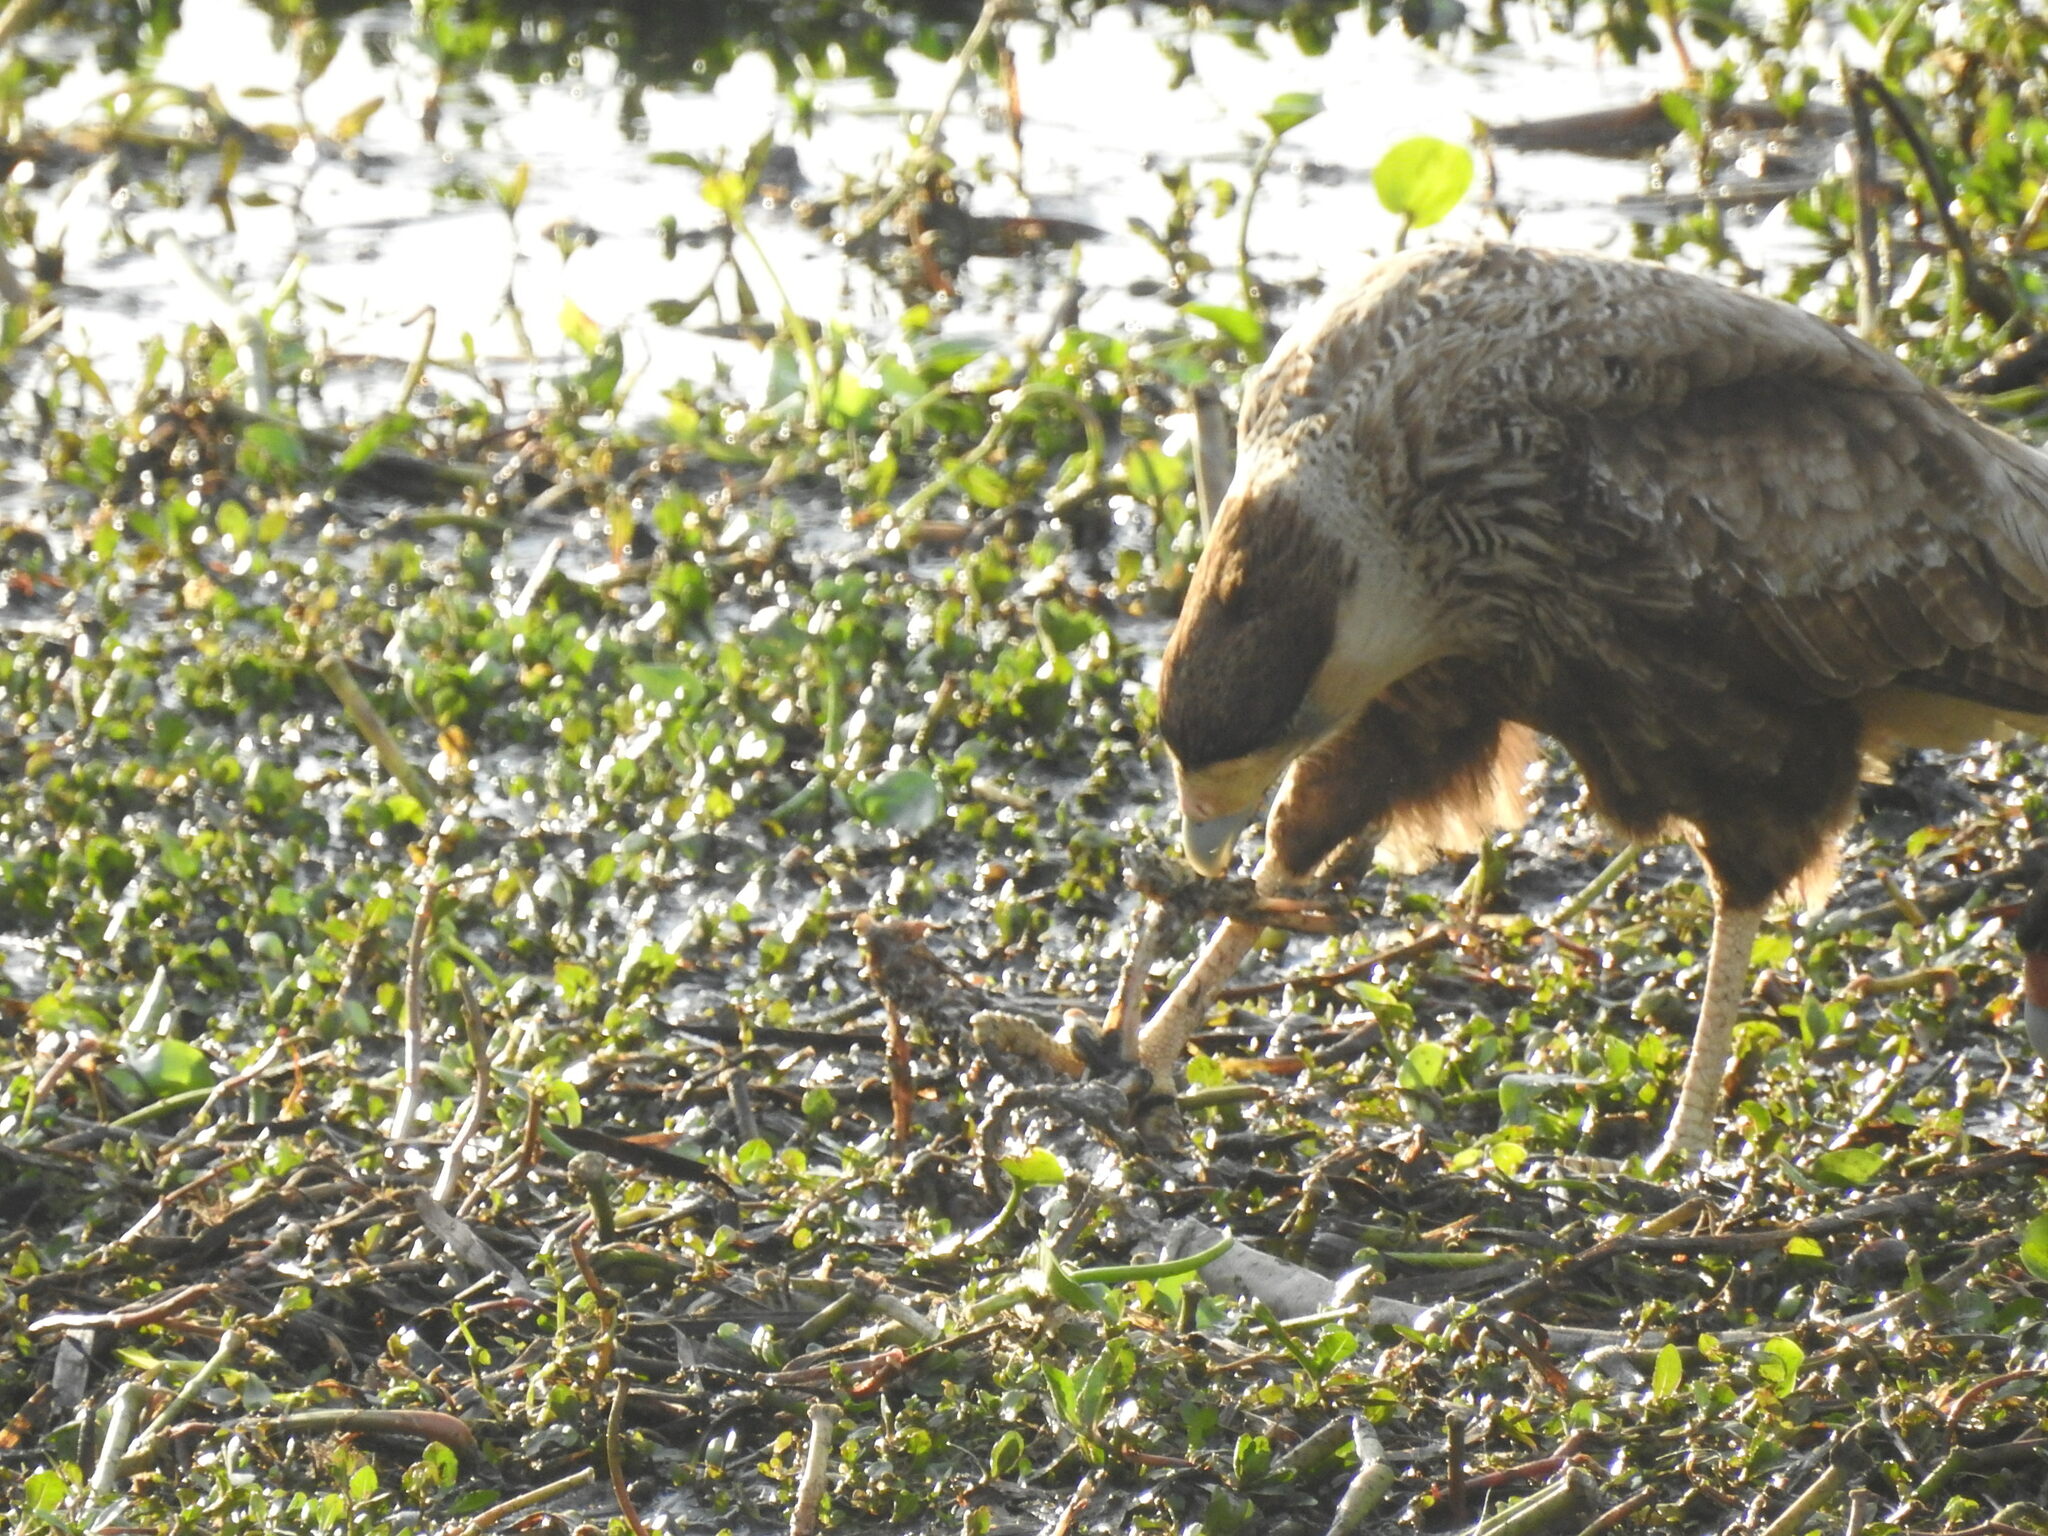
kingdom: Animalia
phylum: Chordata
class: Aves
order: Falconiformes
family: Falconidae
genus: Caracara
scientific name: Caracara plancus
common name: Southern caracara
